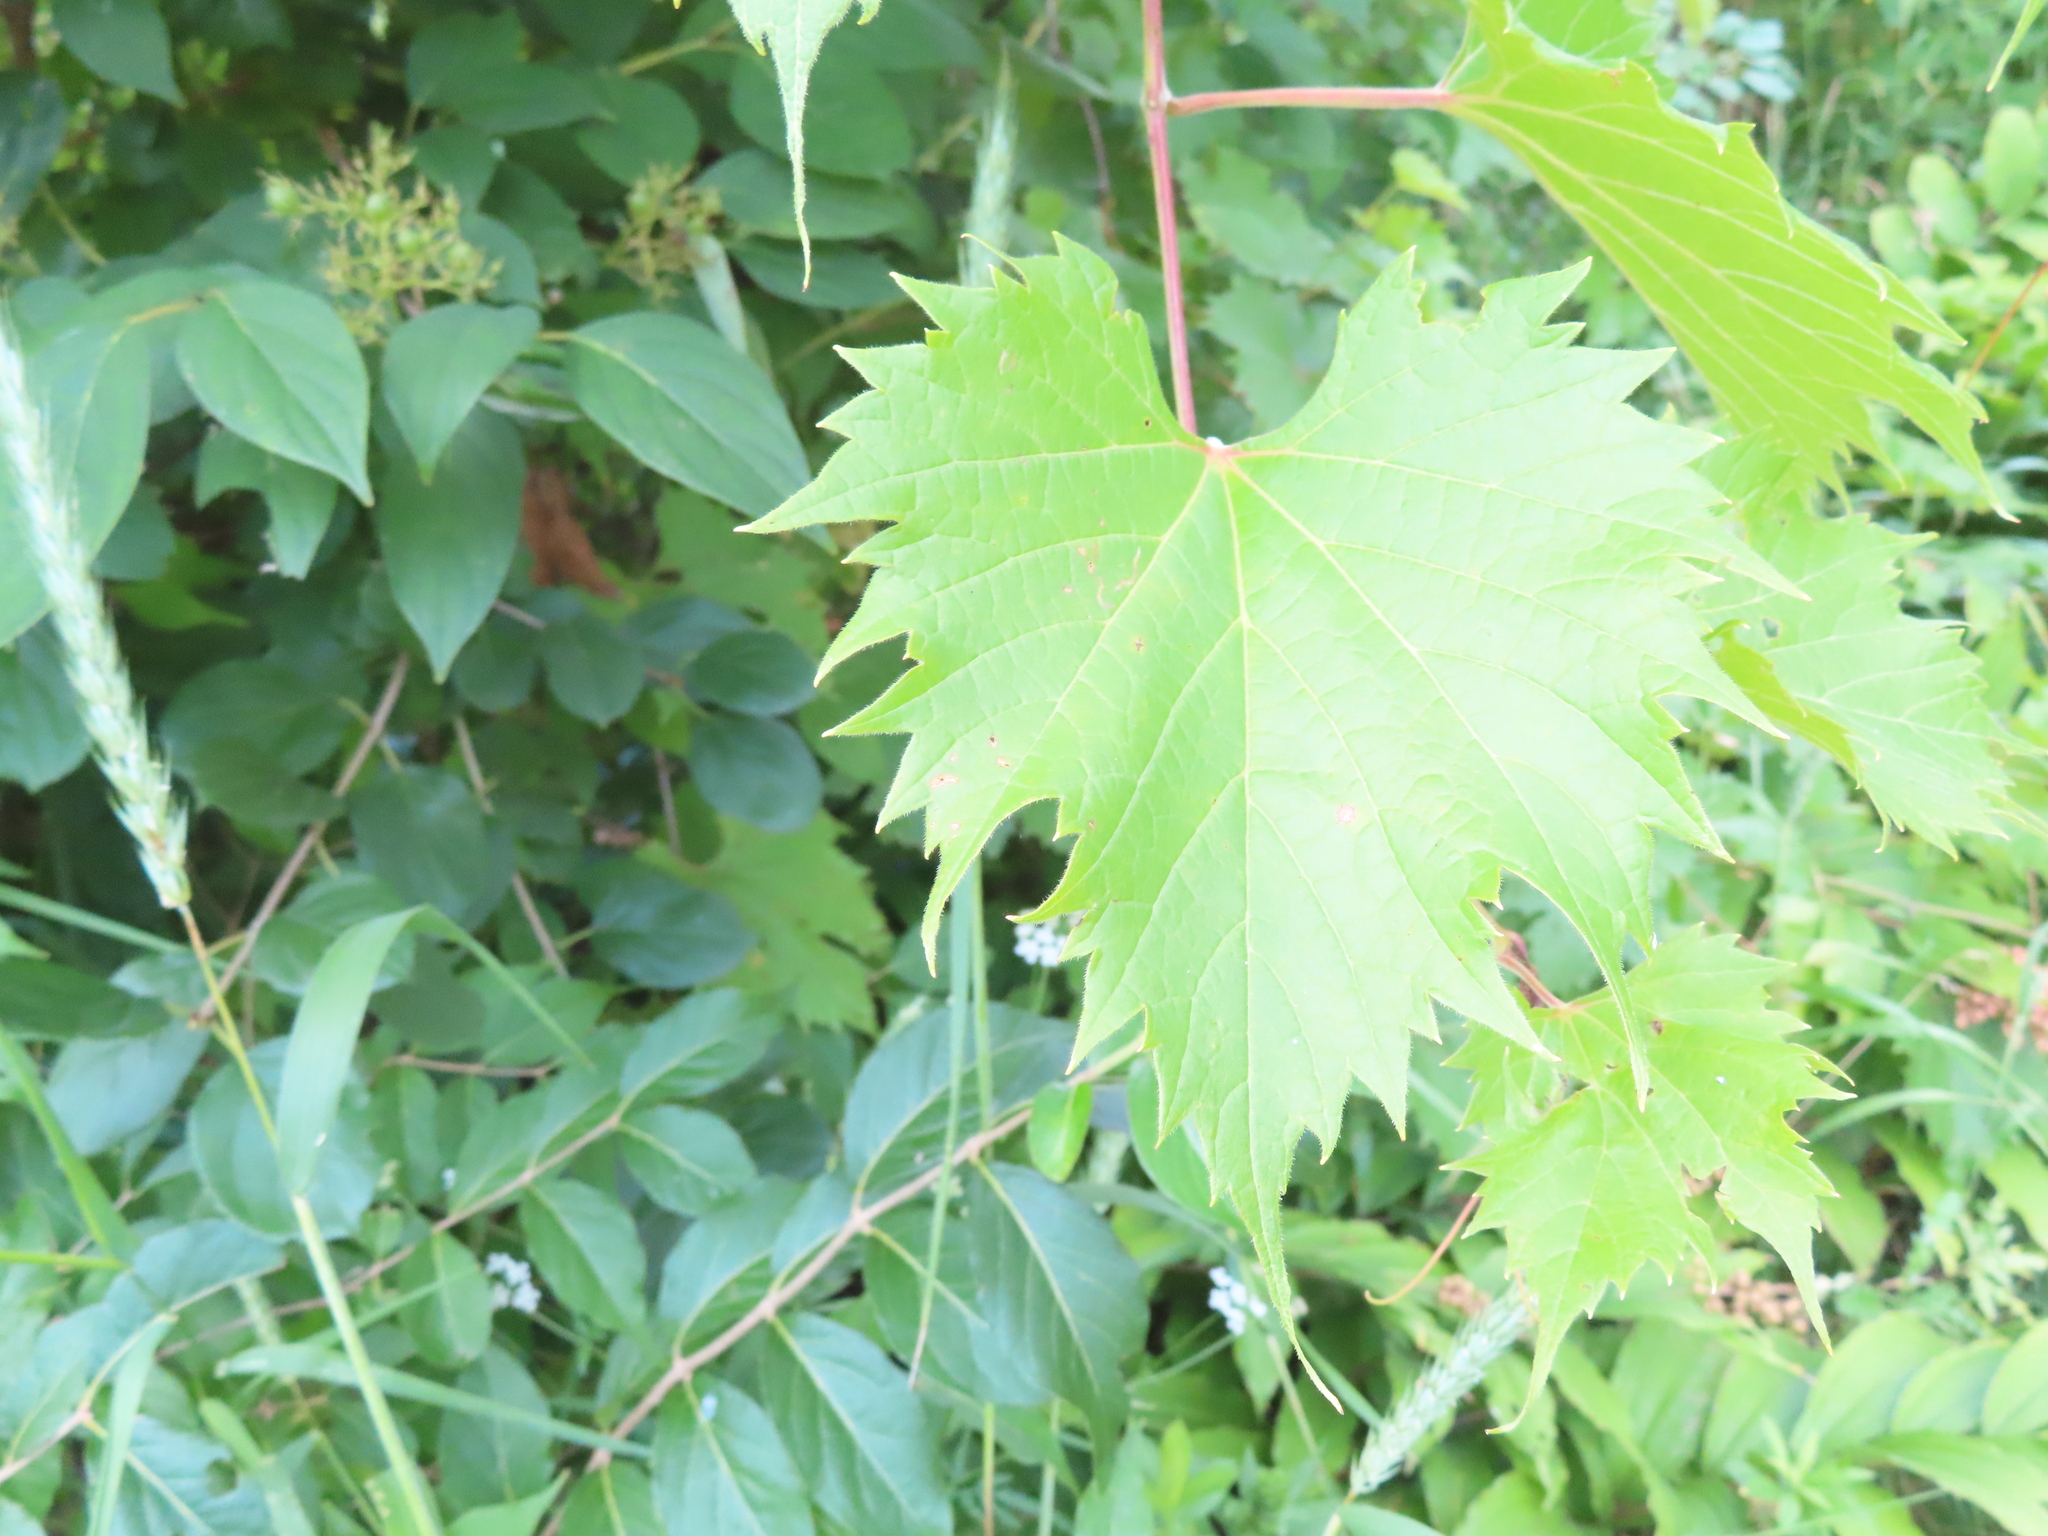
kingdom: Plantae
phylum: Tracheophyta
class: Magnoliopsida
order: Vitales
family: Vitaceae
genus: Vitis
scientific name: Vitis riparia
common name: Frost grape
